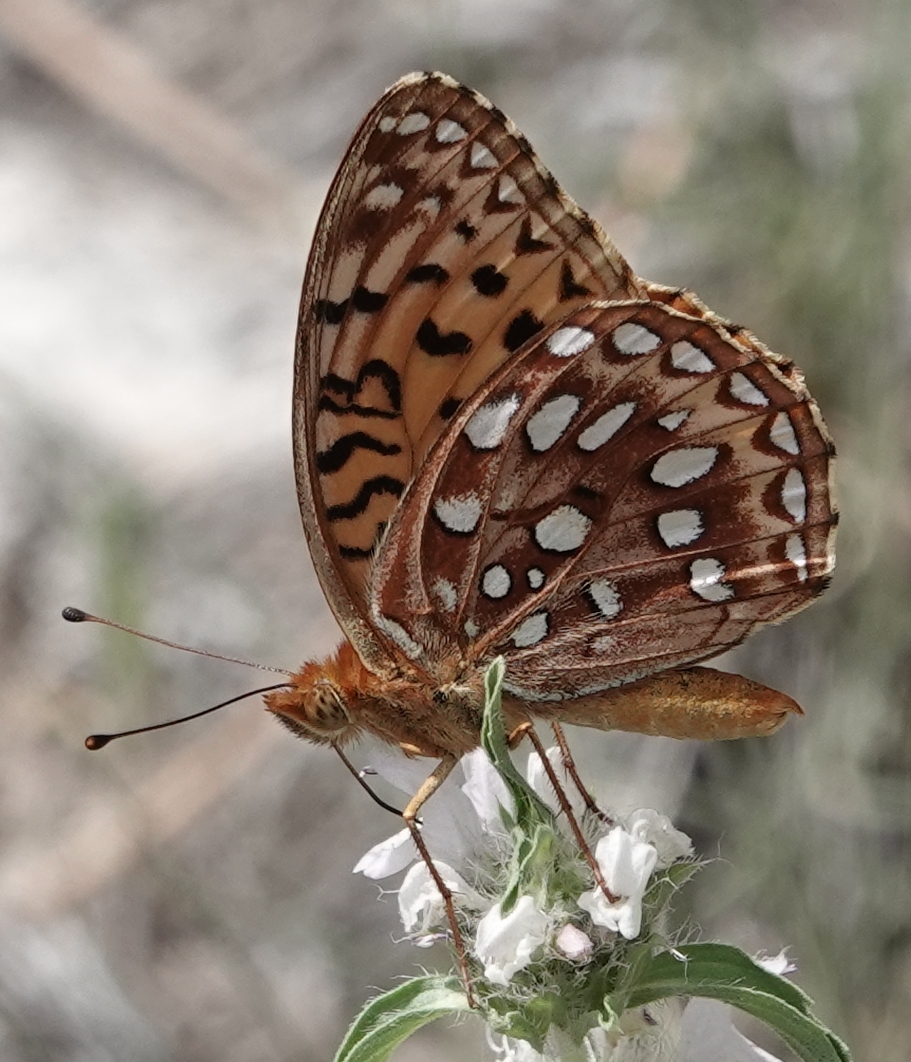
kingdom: Animalia
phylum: Arthropoda
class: Insecta
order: Lepidoptera
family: Nymphalidae
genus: Speyeria
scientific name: Speyeria aphrodite
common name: Aphrodite friitllary
